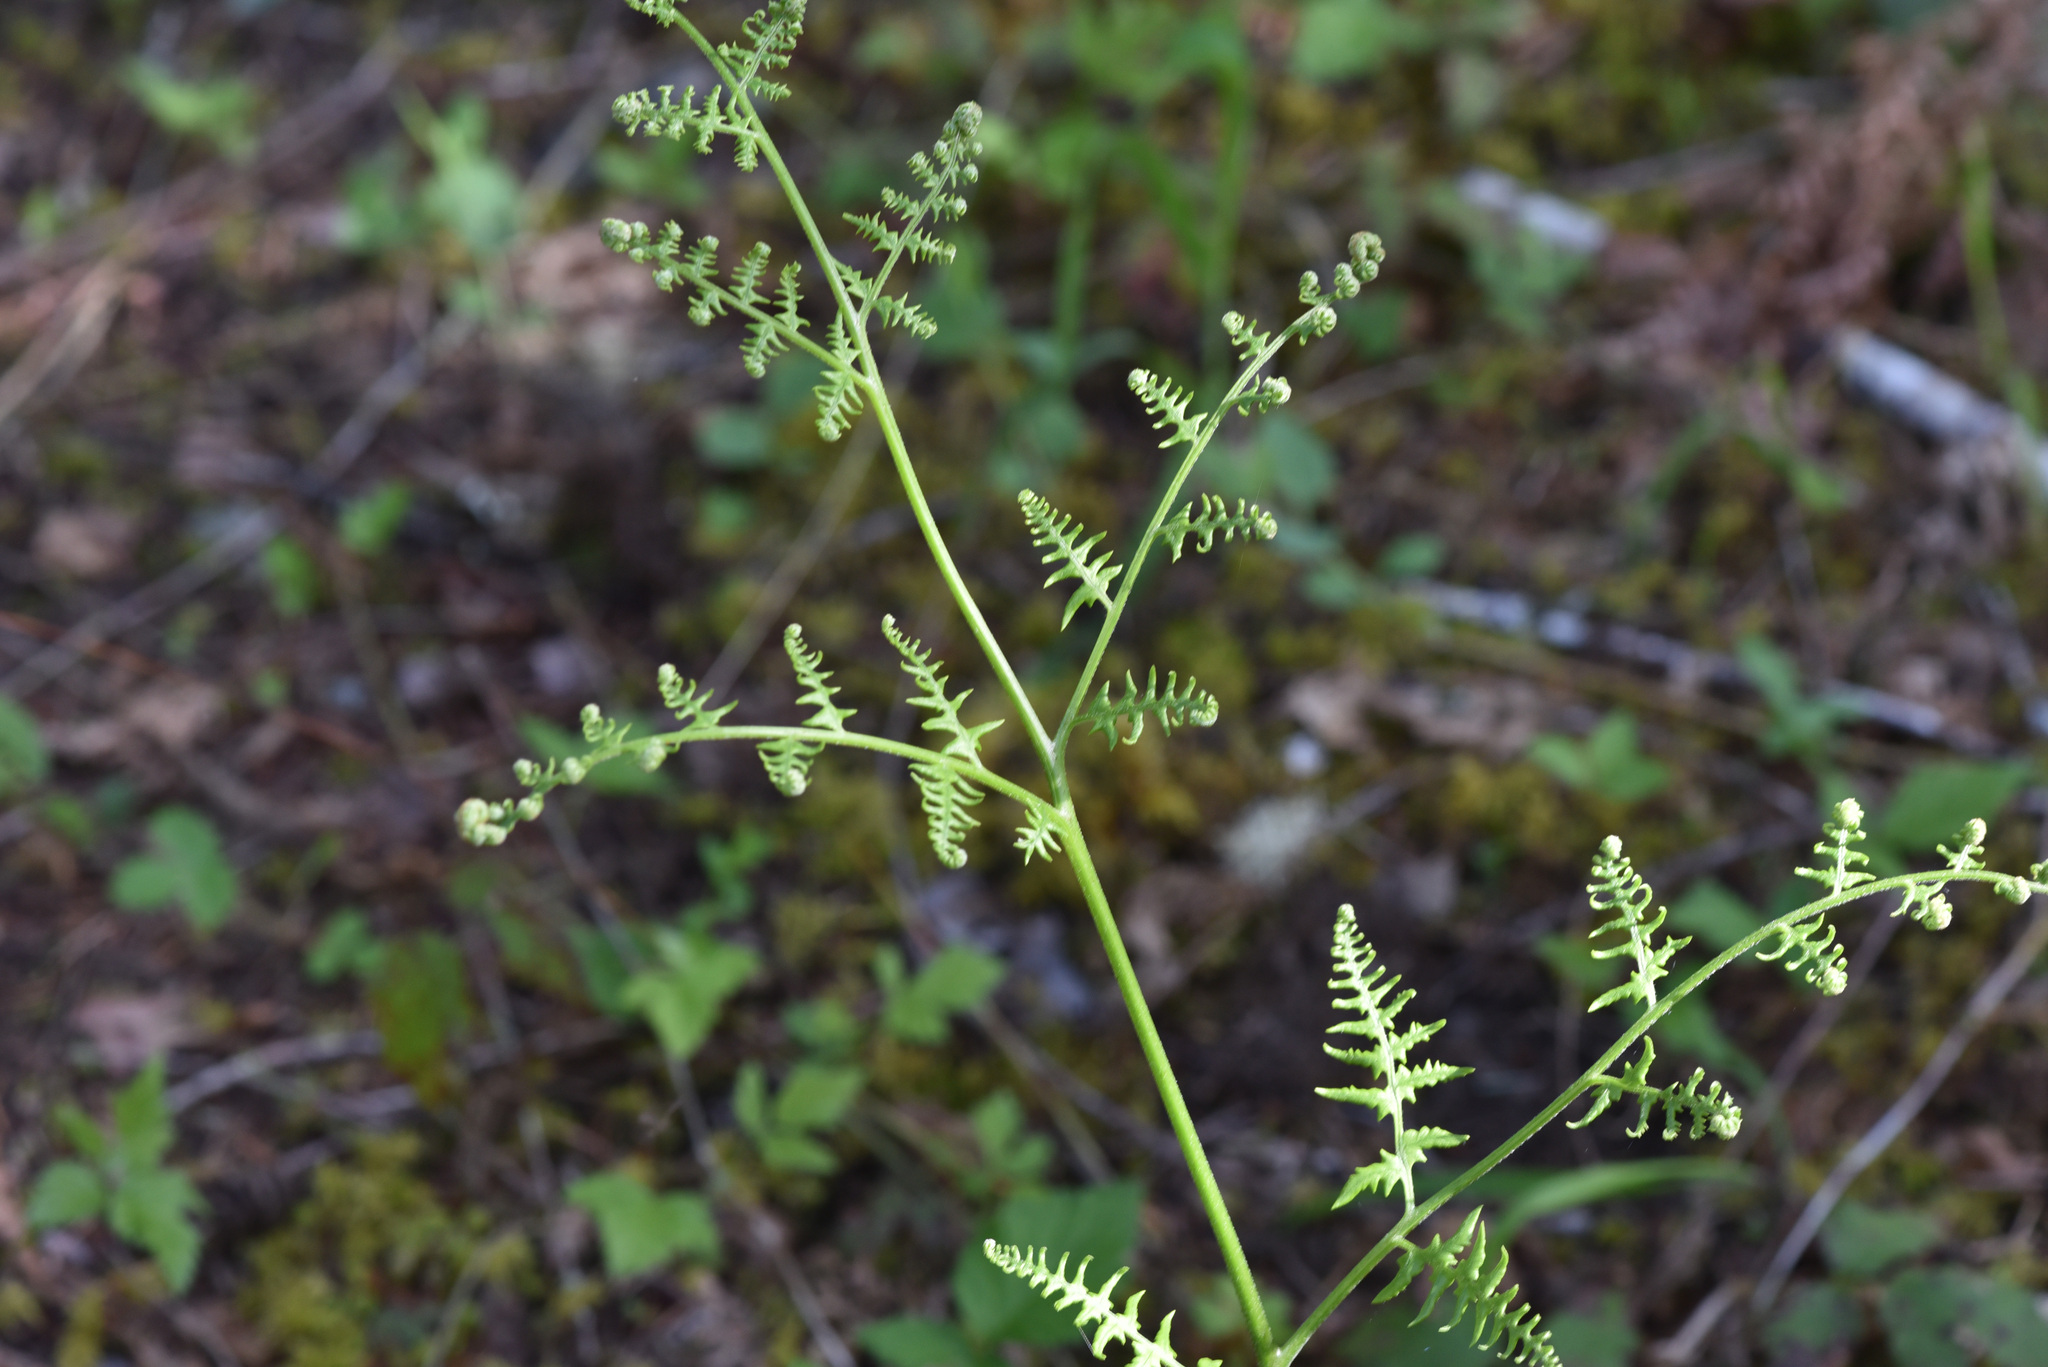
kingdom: Plantae
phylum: Tracheophyta
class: Polypodiopsida
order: Polypodiales
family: Dennstaedtiaceae
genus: Pteridium
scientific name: Pteridium aquilinum
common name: Bracken
